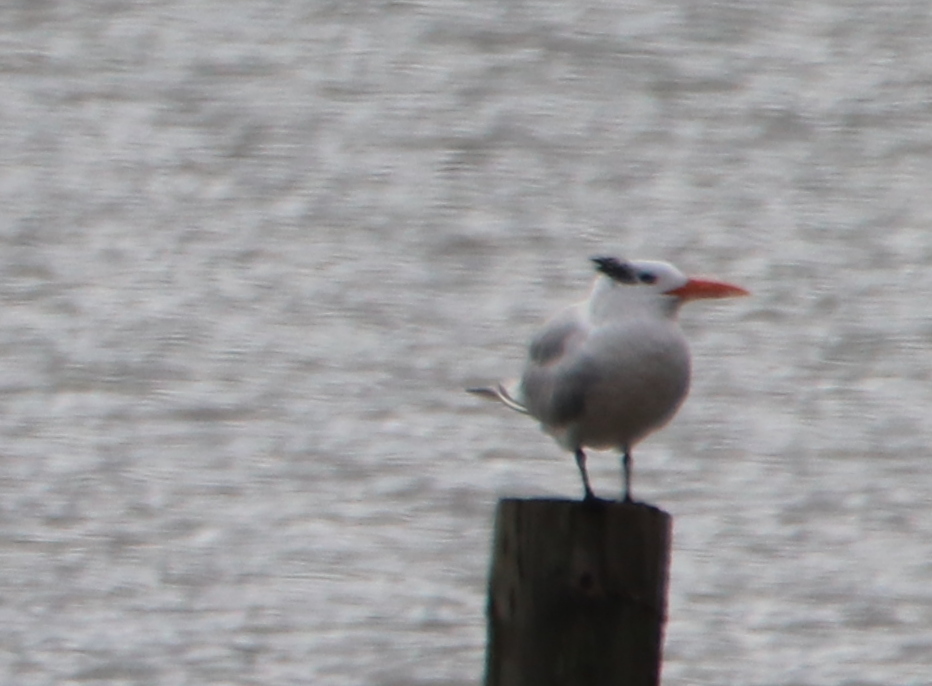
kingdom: Animalia
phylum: Chordata
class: Aves
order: Charadriiformes
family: Laridae
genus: Thalasseus
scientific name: Thalasseus maximus
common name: Royal tern
